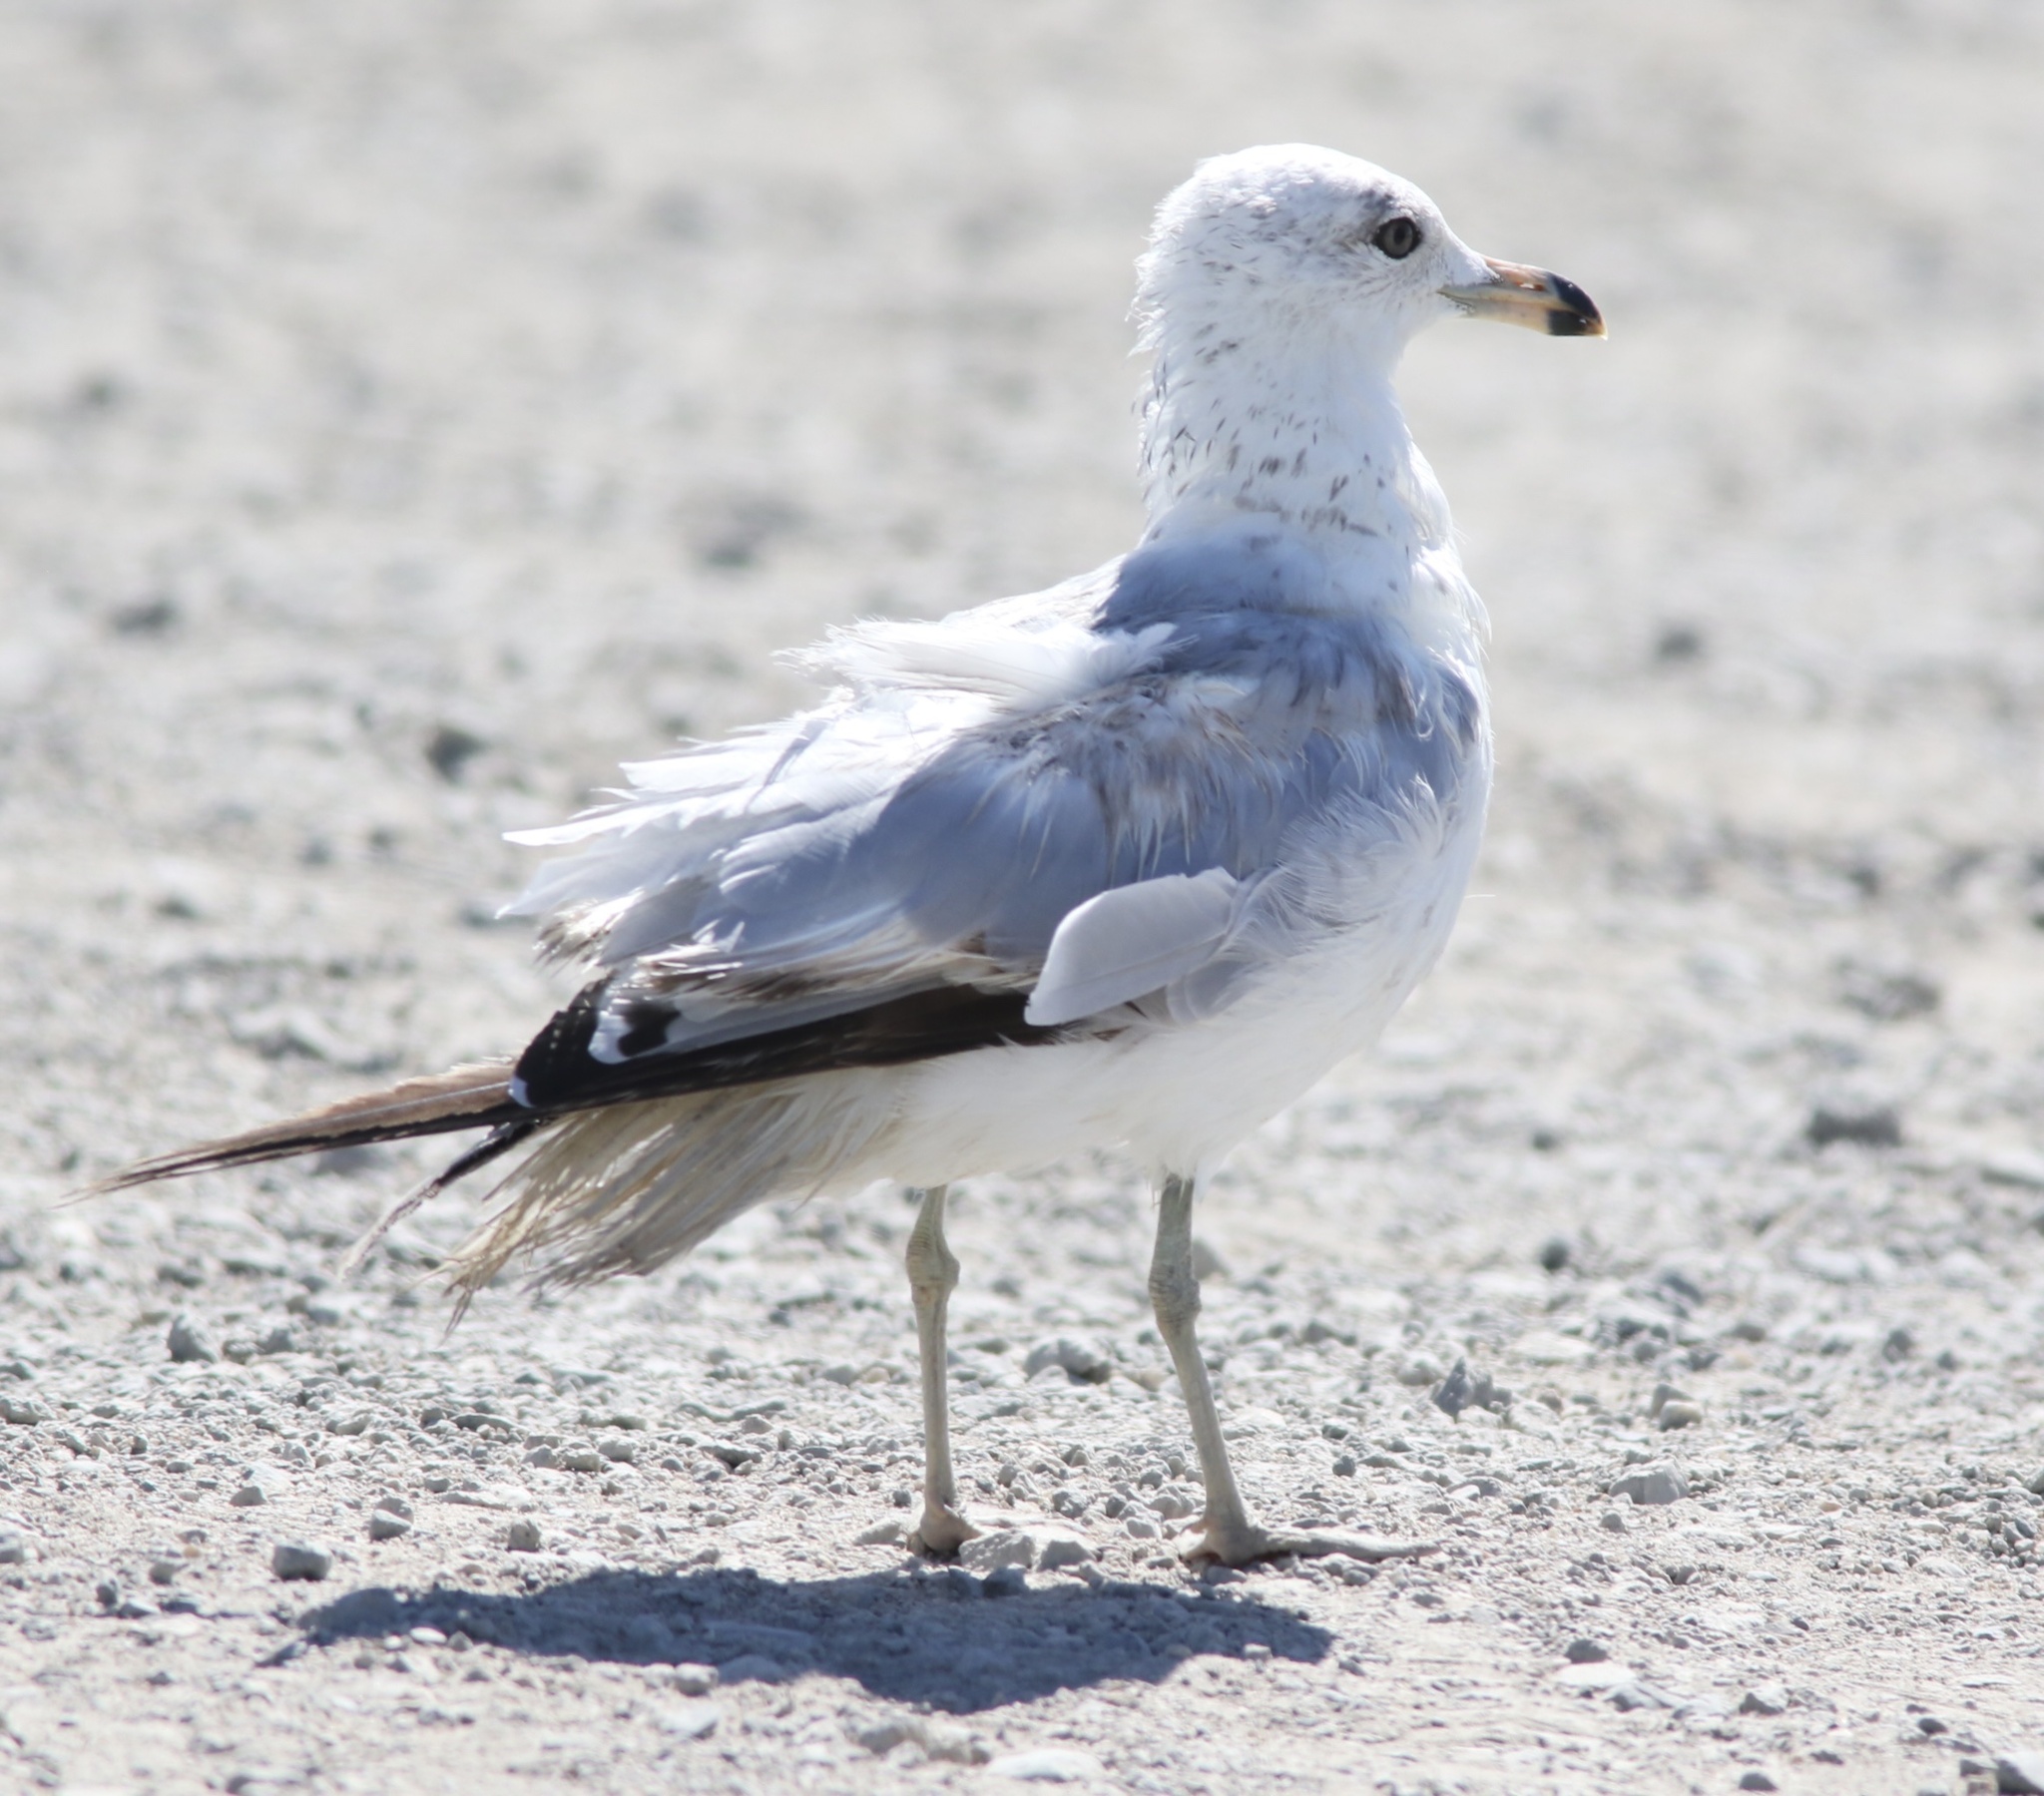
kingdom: Animalia
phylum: Chordata
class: Aves
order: Charadriiformes
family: Laridae
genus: Larus
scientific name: Larus delawarensis
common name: Ring-billed gull
